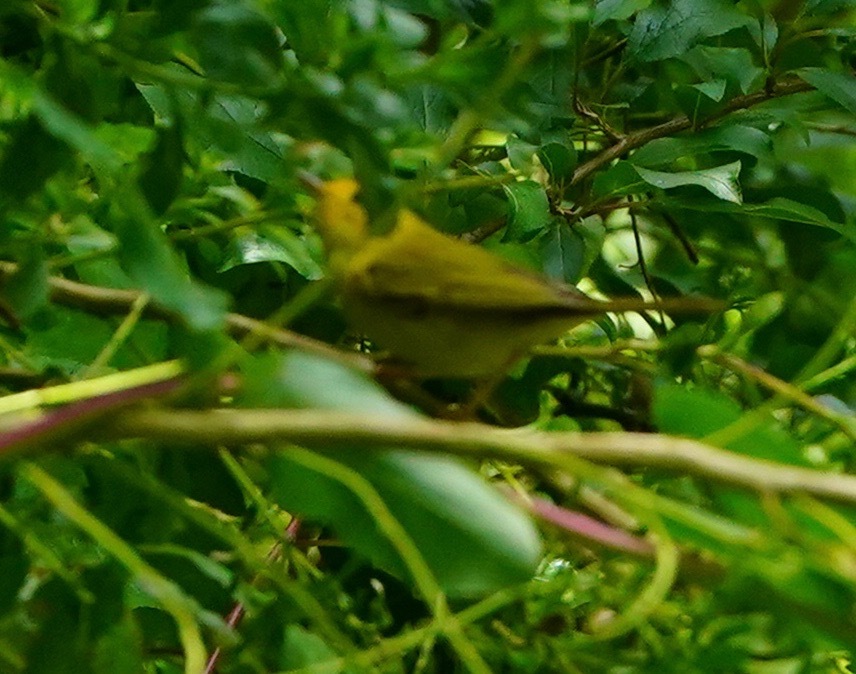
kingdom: Animalia
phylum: Chordata
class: Aves
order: Passeriformes
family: Parulidae
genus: Cardellina
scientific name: Cardellina pusilla
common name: Wilson's warbler
